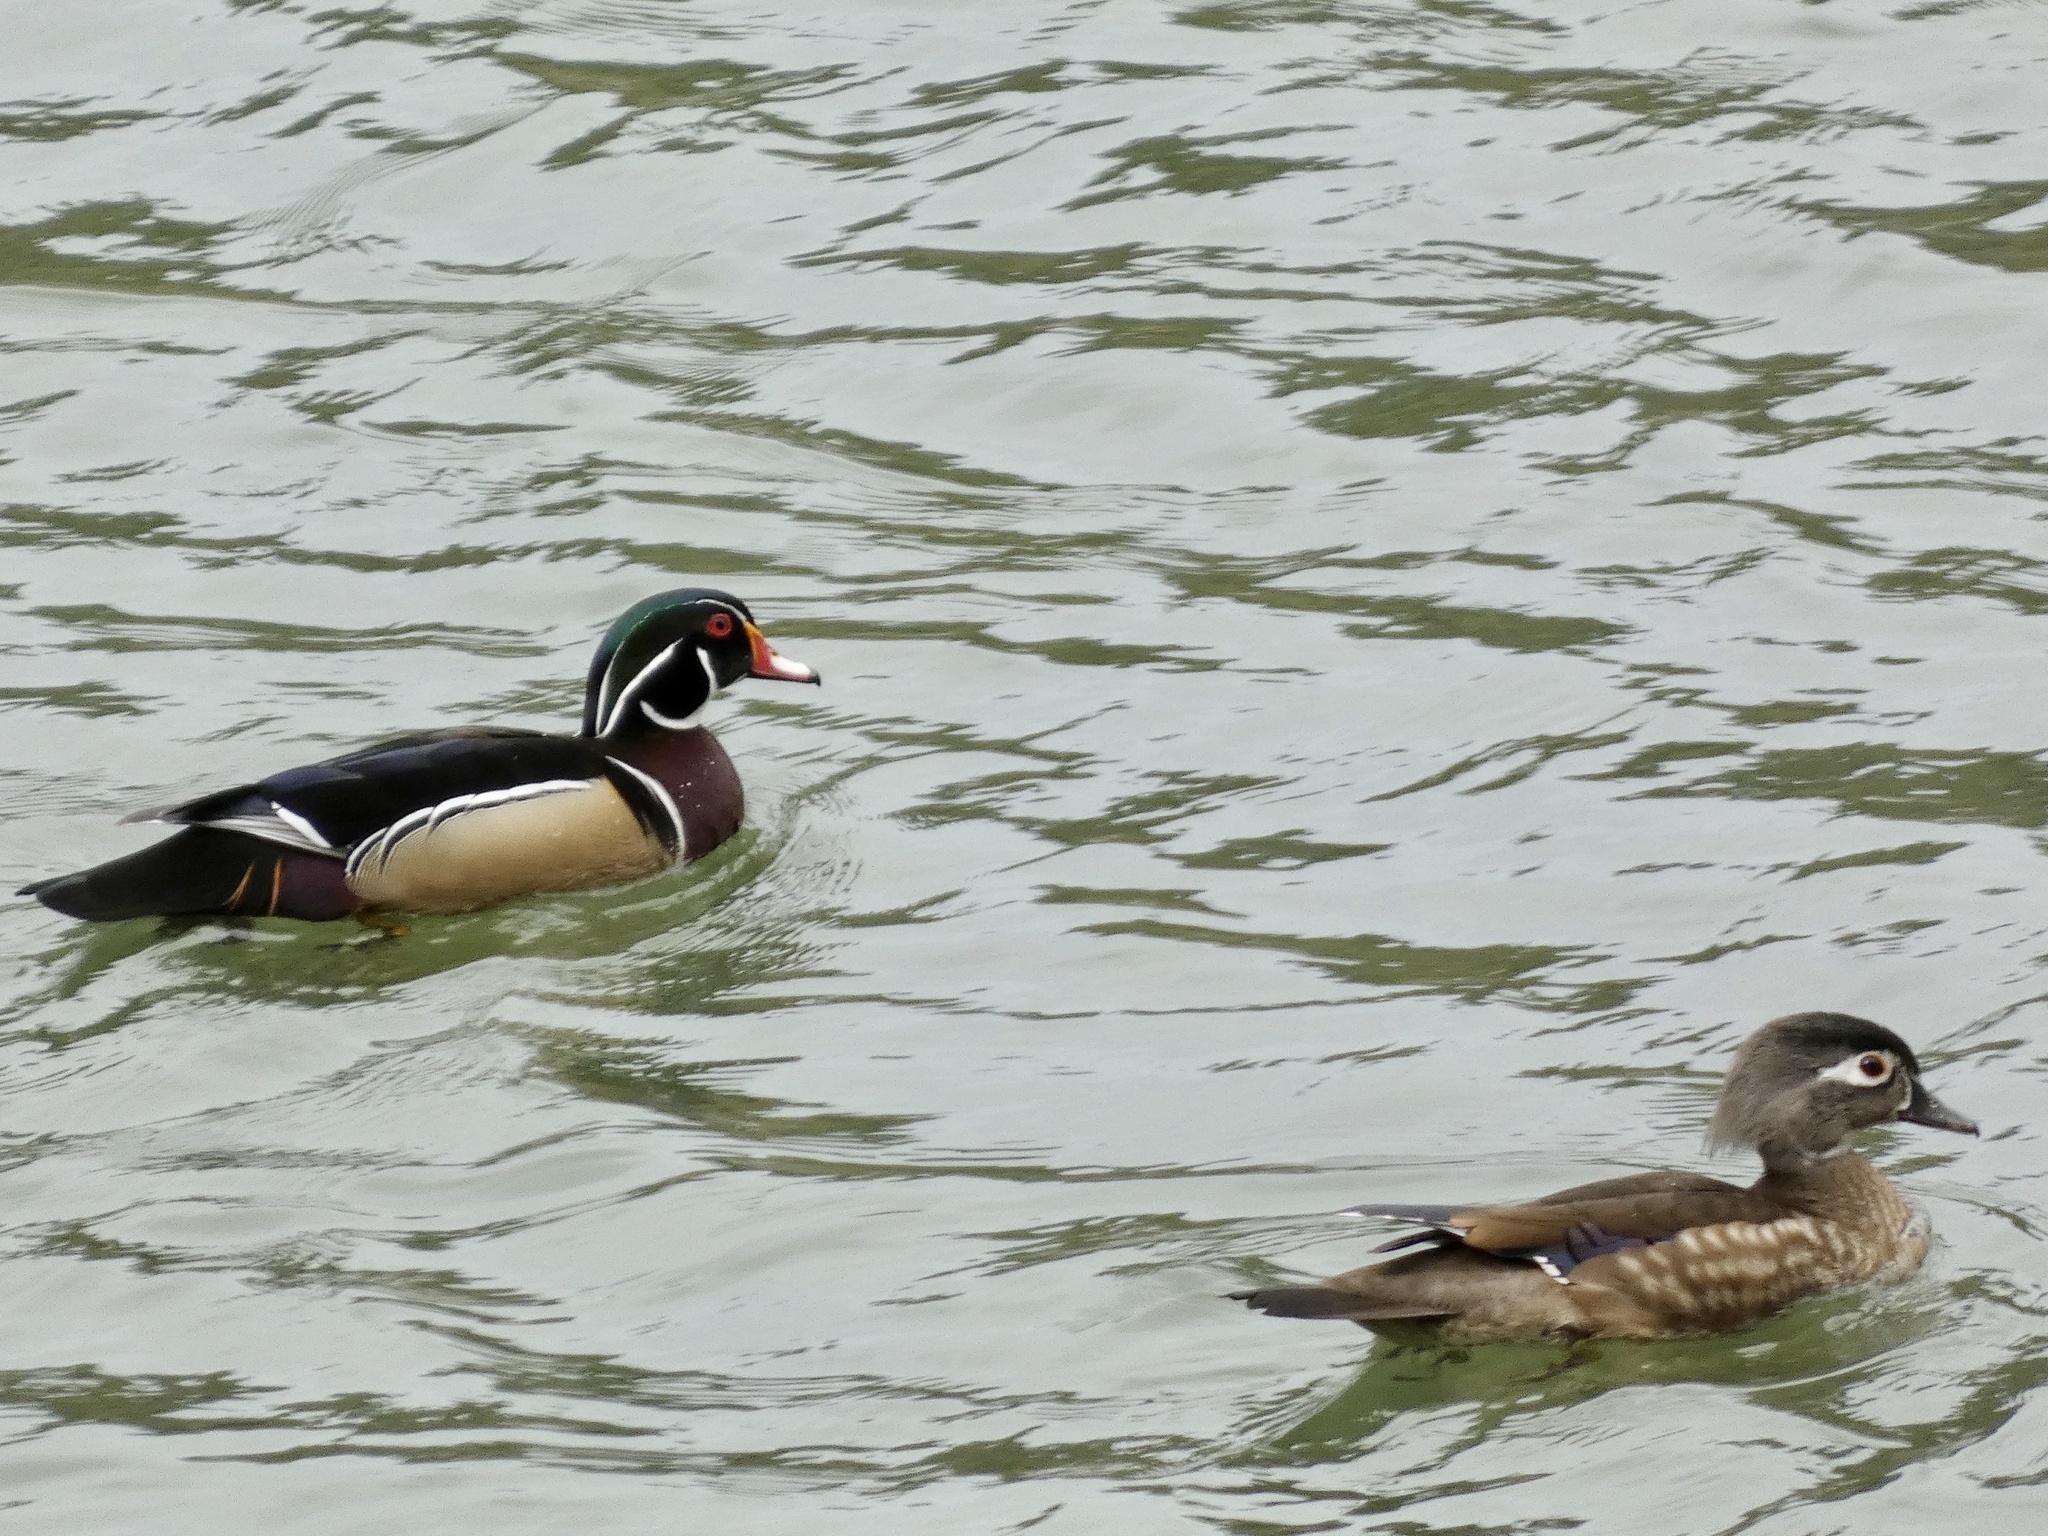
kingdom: Animalia
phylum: Chordata
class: Aves
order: Anseriformes
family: Anatidae
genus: Aix
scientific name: Aix sponsa
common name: Wood duck
